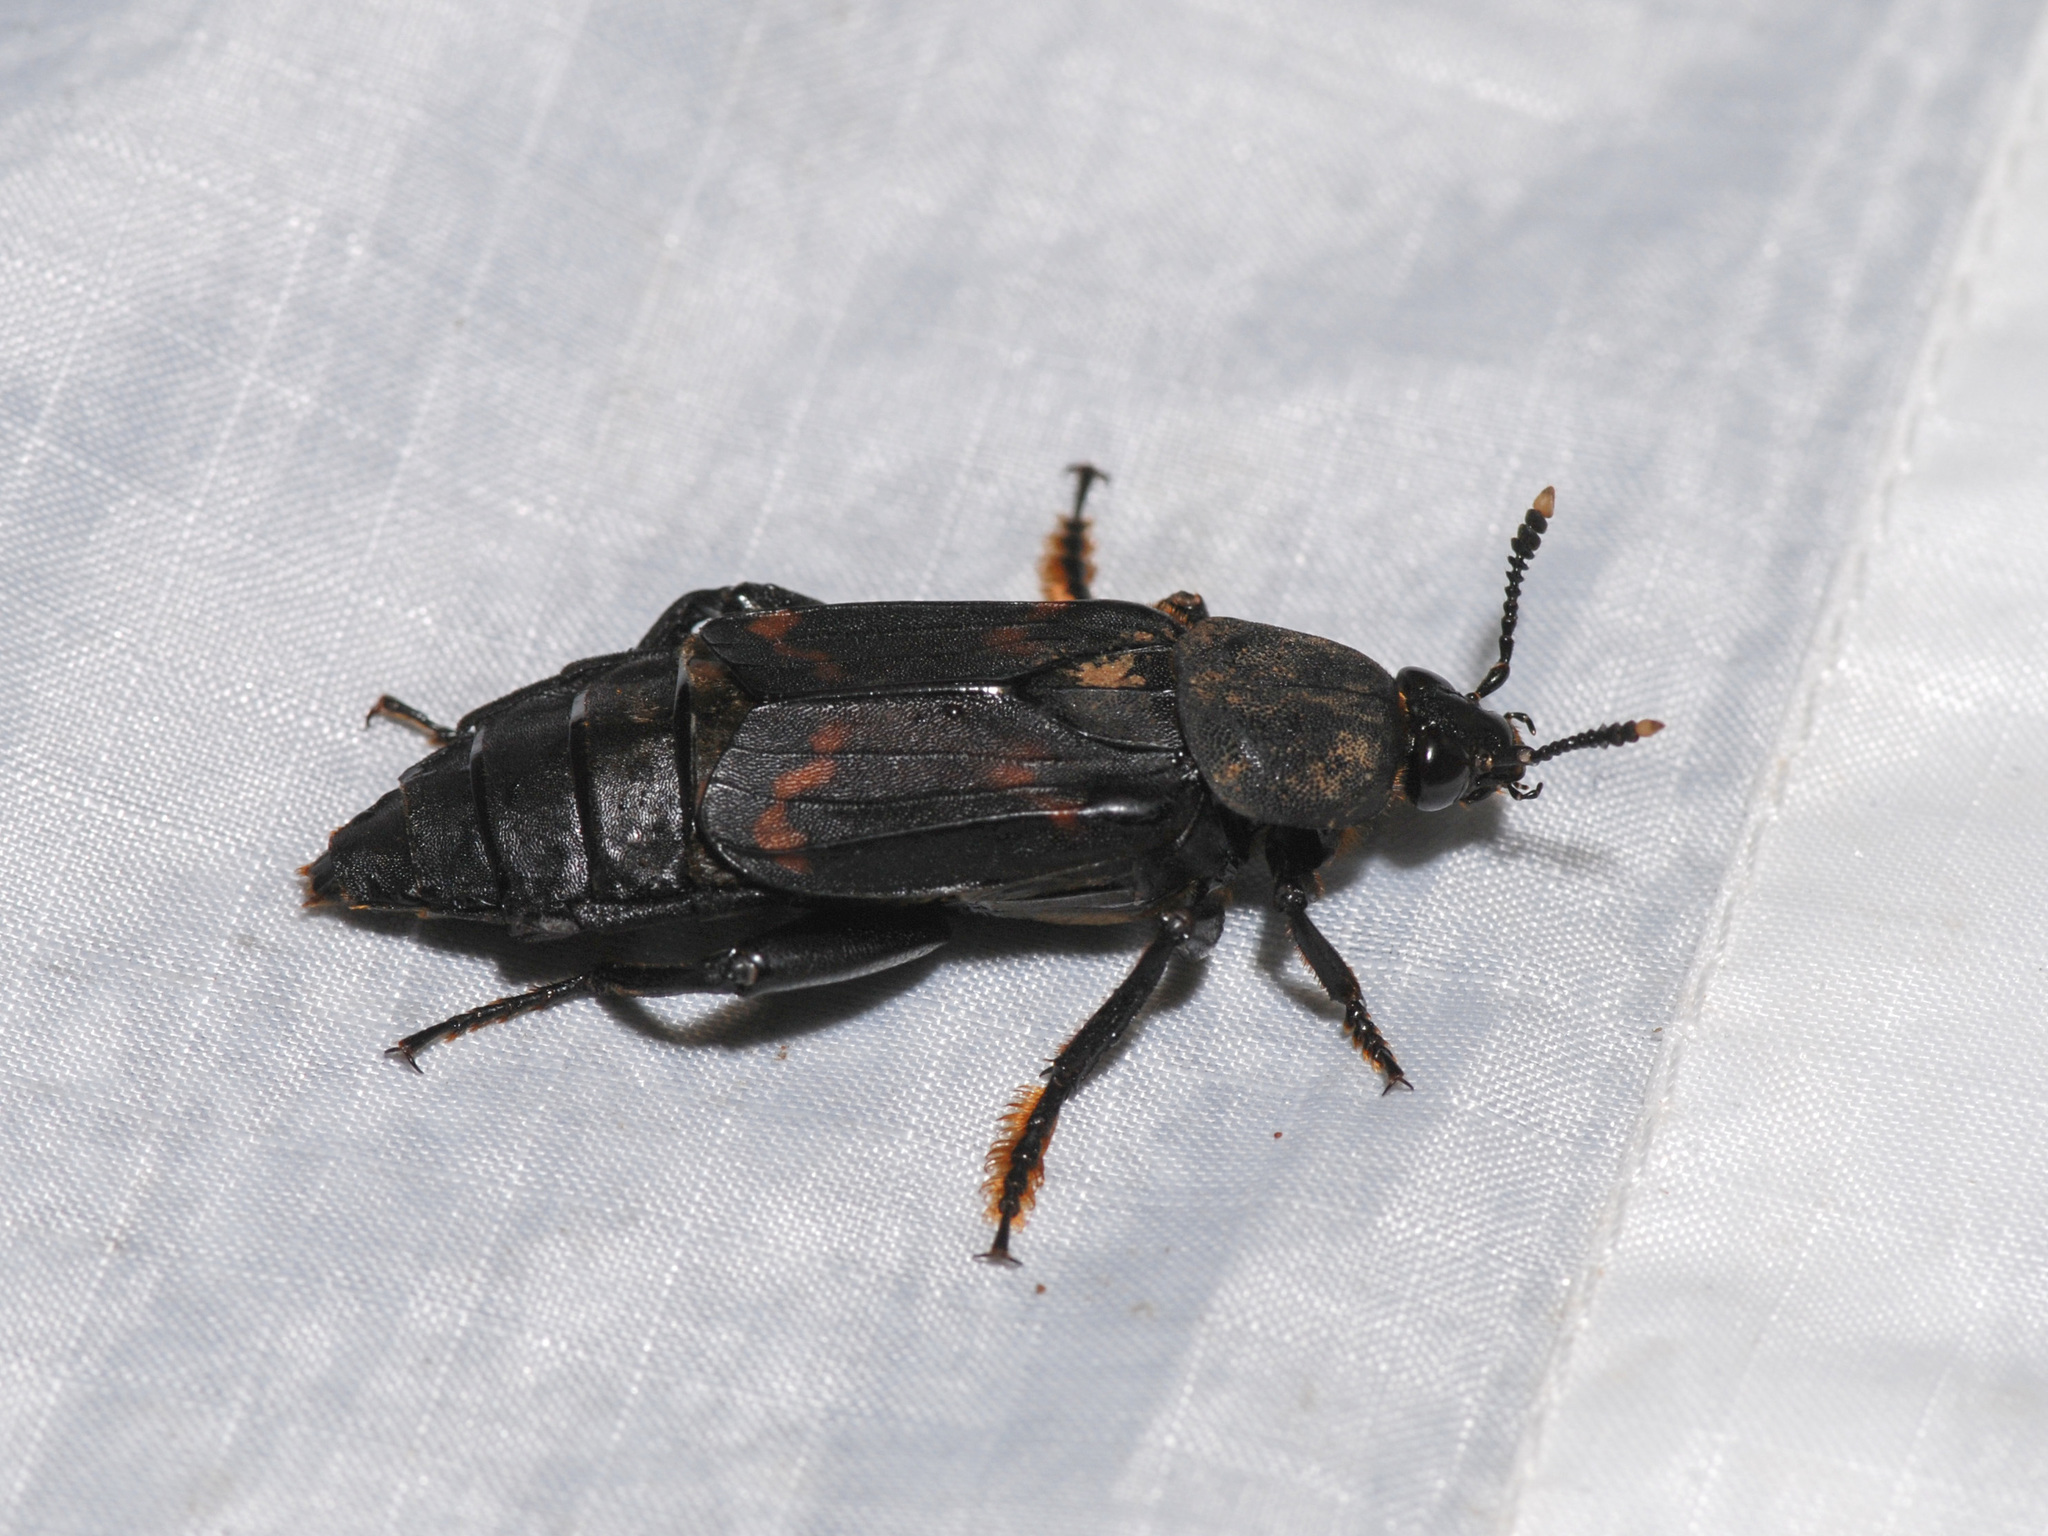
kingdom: Animalia
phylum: Arthropoda
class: Insecta
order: Coleoptera
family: Staphylinidae
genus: Diamesus
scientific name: Diamesus osculans
